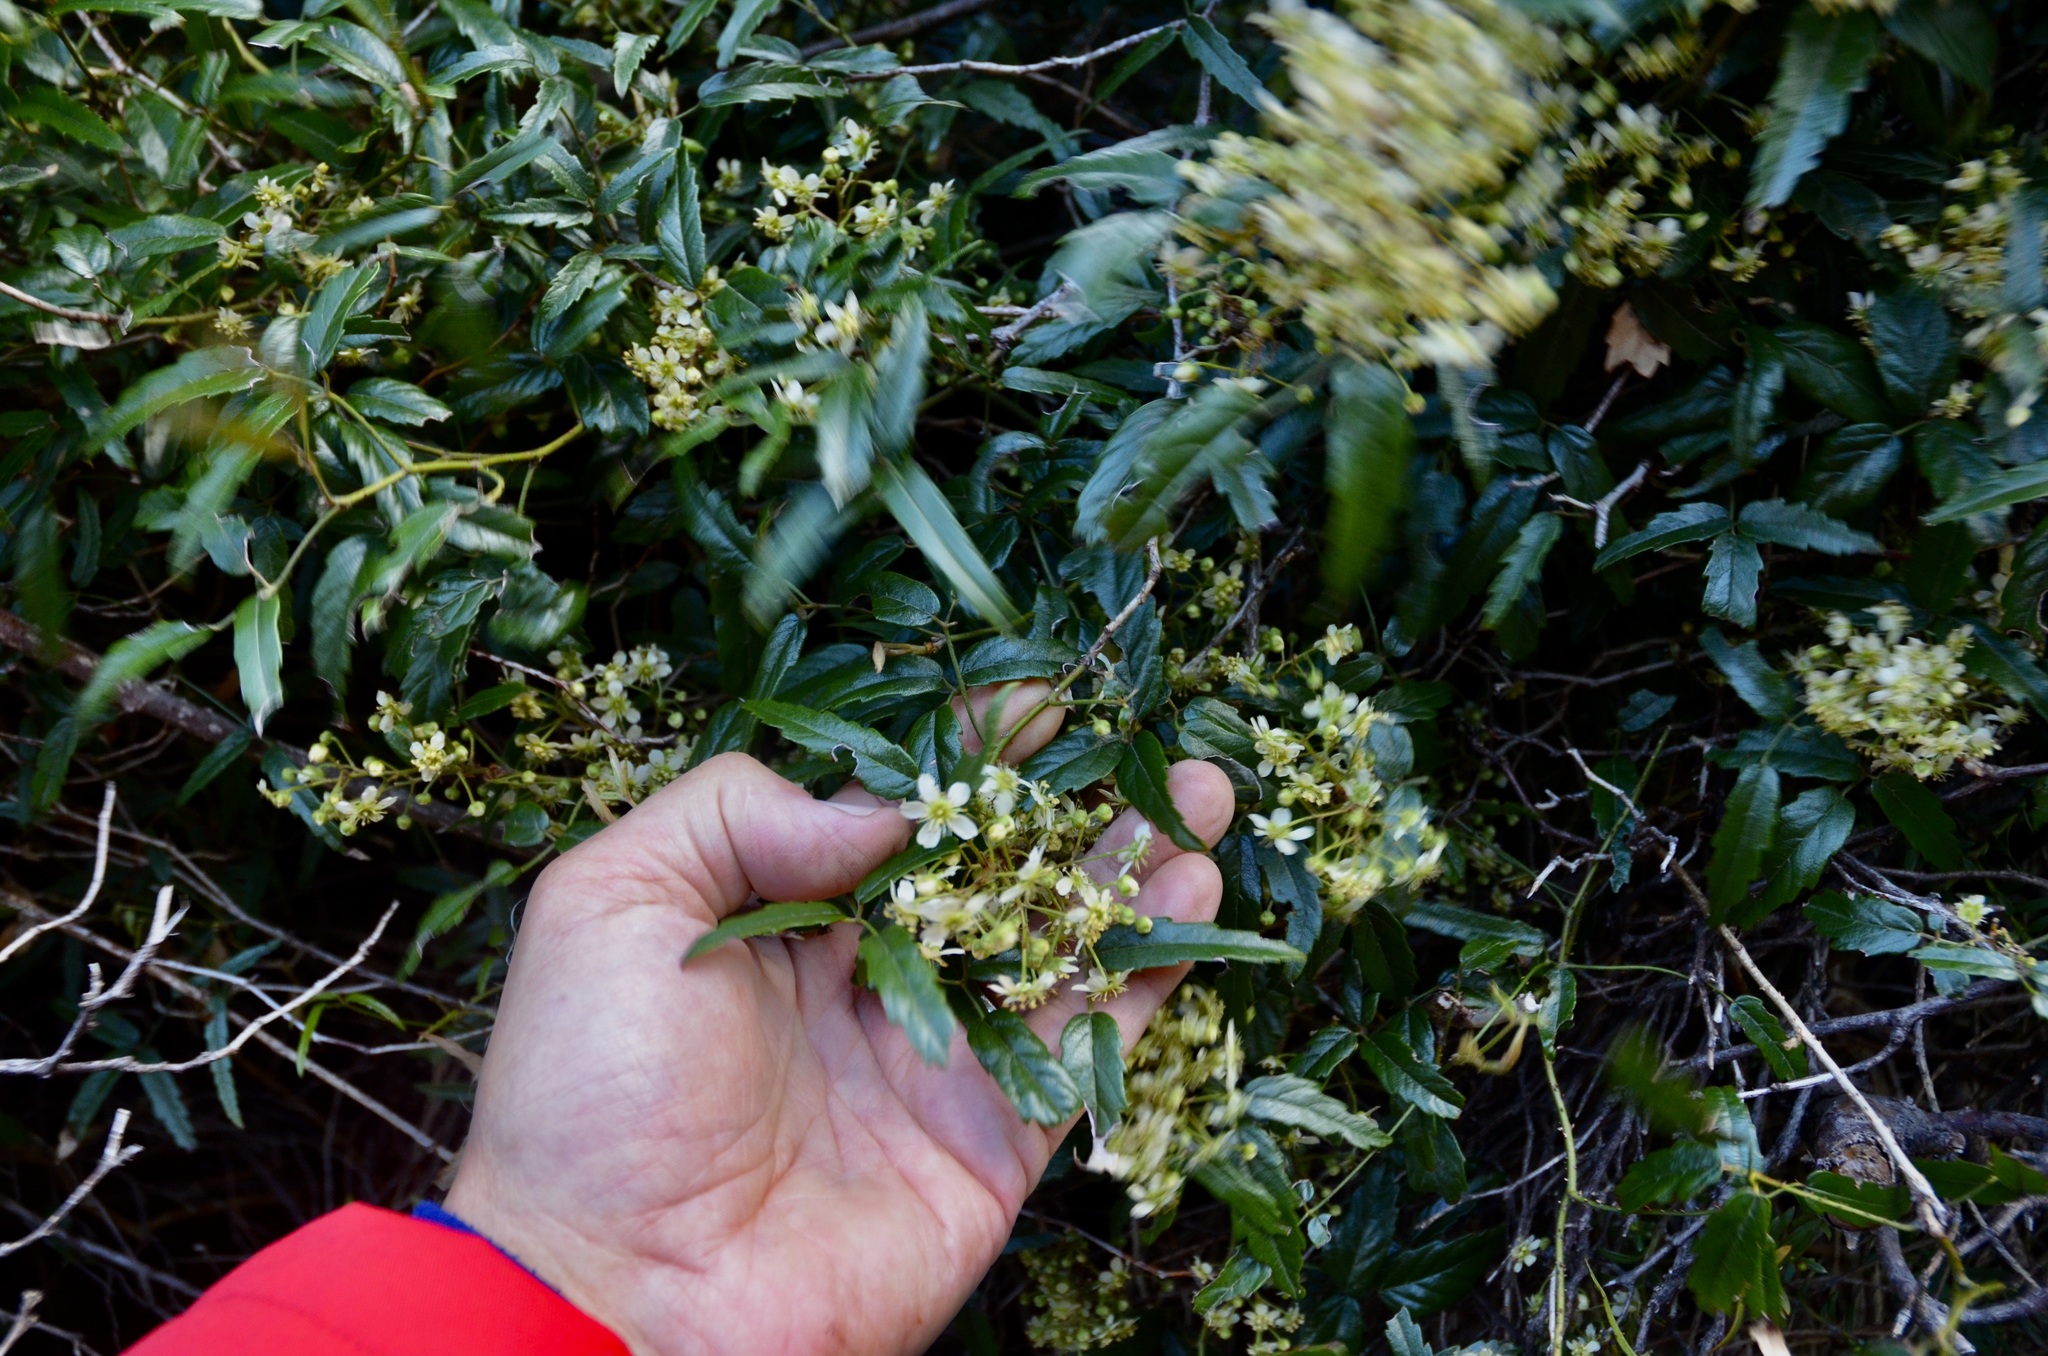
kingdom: Plantae
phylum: Tracheophyta
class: Magnoliopsida
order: Rosales
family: Rosaceae
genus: Rubus
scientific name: Rubus schmidelioides
